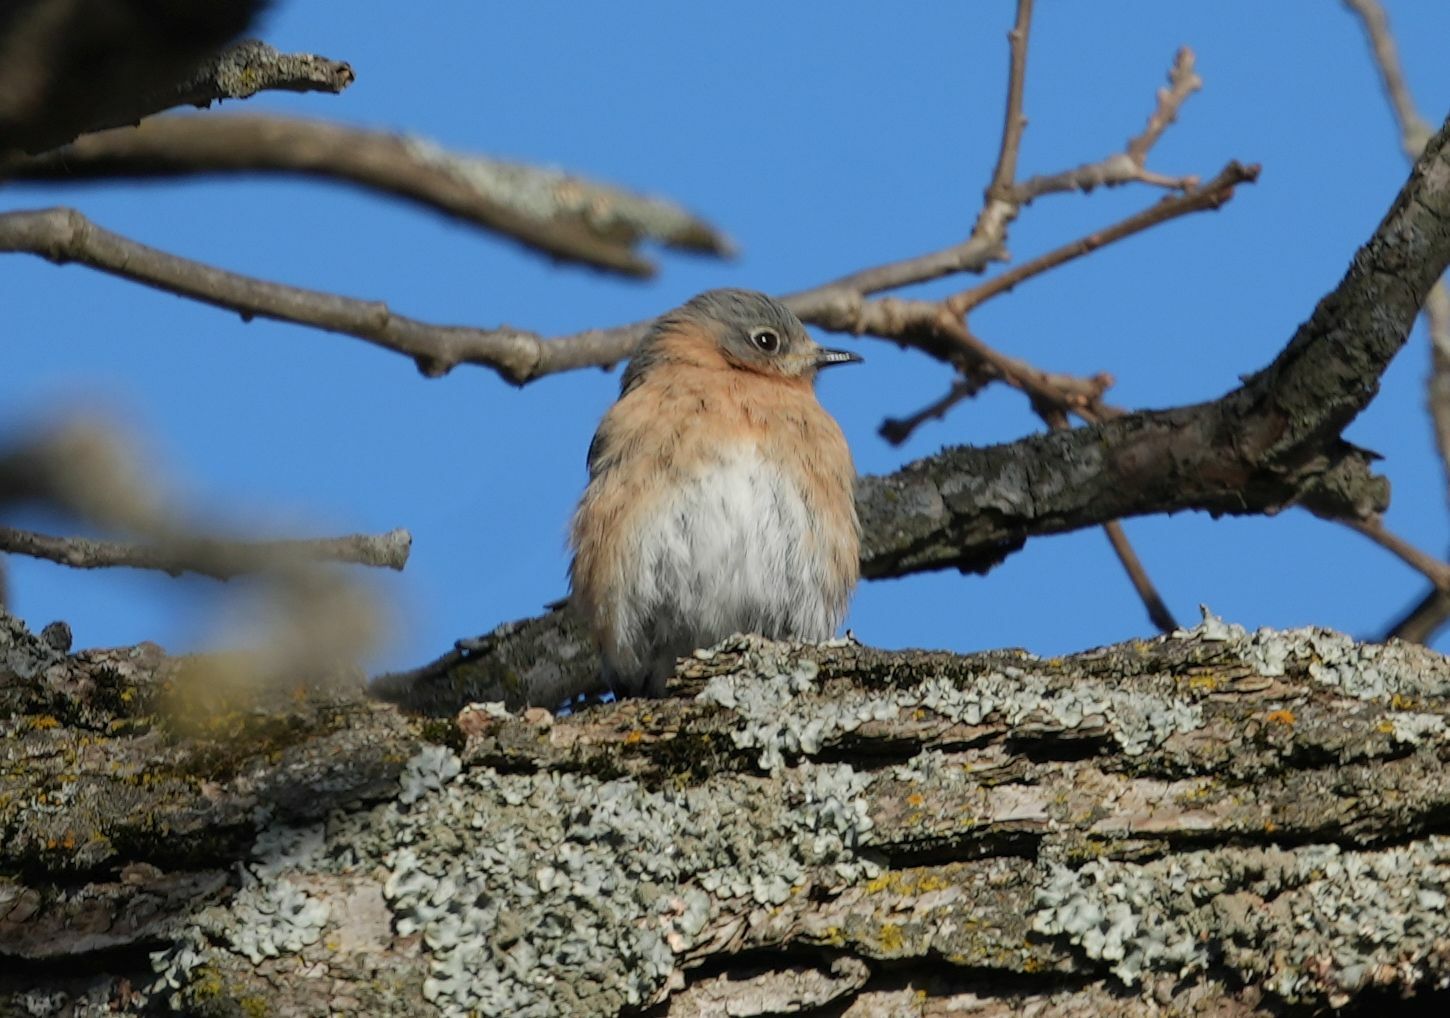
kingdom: Animalia
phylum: Chordata
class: Aves
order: Passeriformes
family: Turdidae
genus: Sialia
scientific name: Sialia sialis
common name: Eastern bluebird
